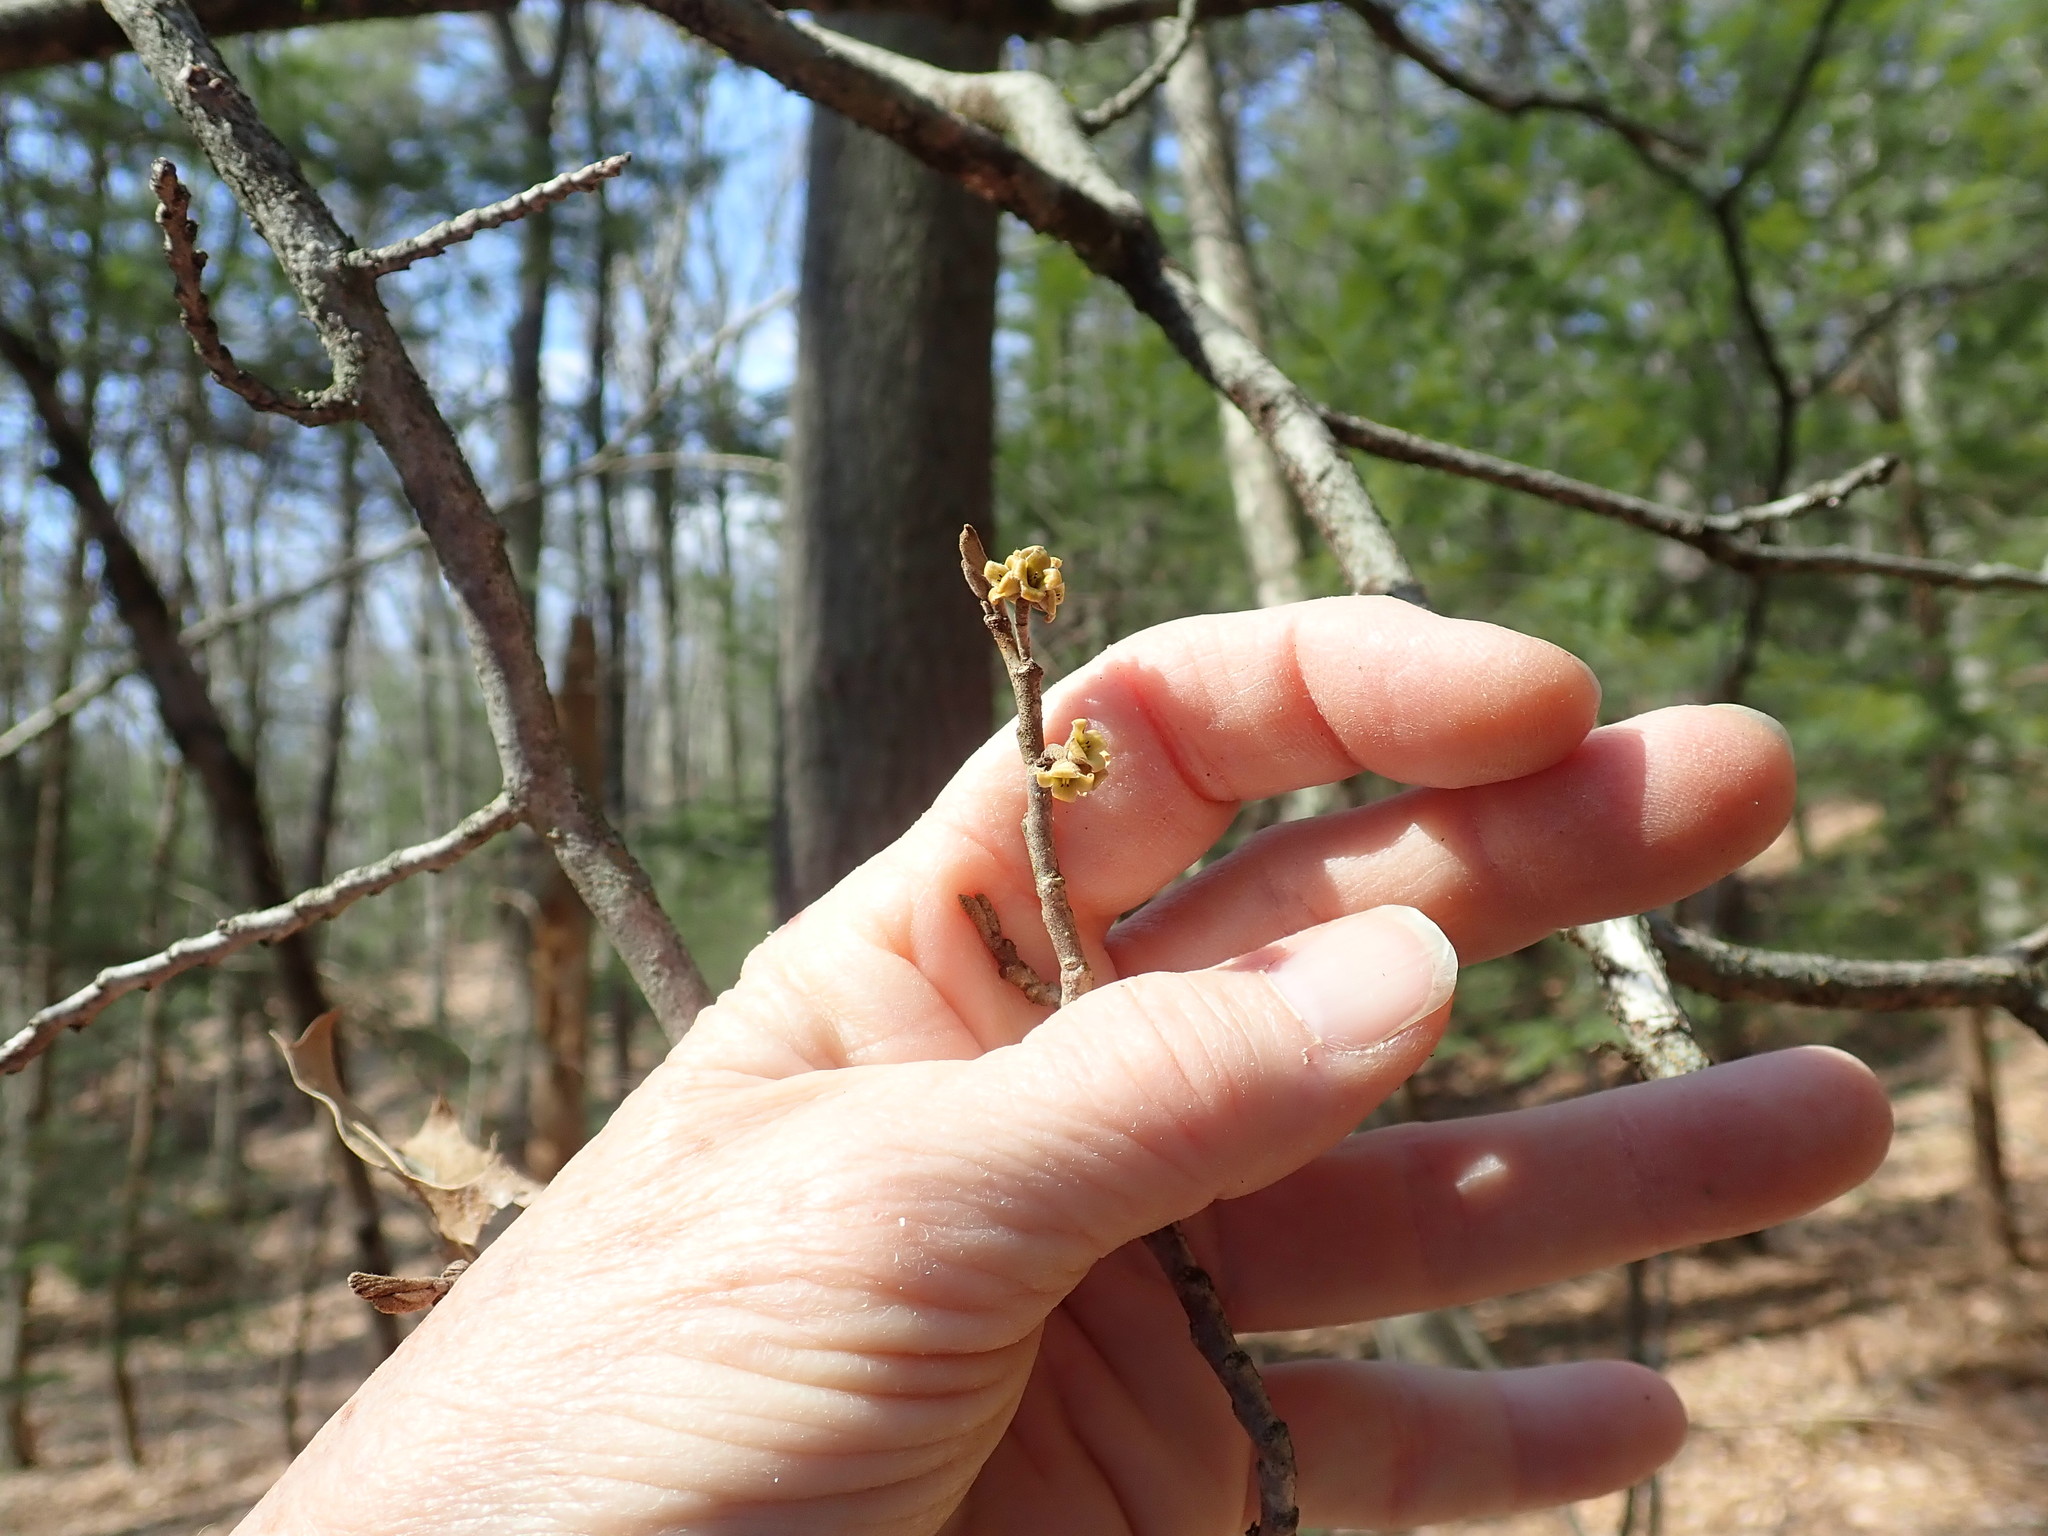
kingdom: Plantae
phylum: Tracheophyta
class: Magnoliopsida
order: Saxifragales
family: Hamamelidaceae
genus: Hamamelis
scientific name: Hamamelis virginiana
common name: Witch-hazel
